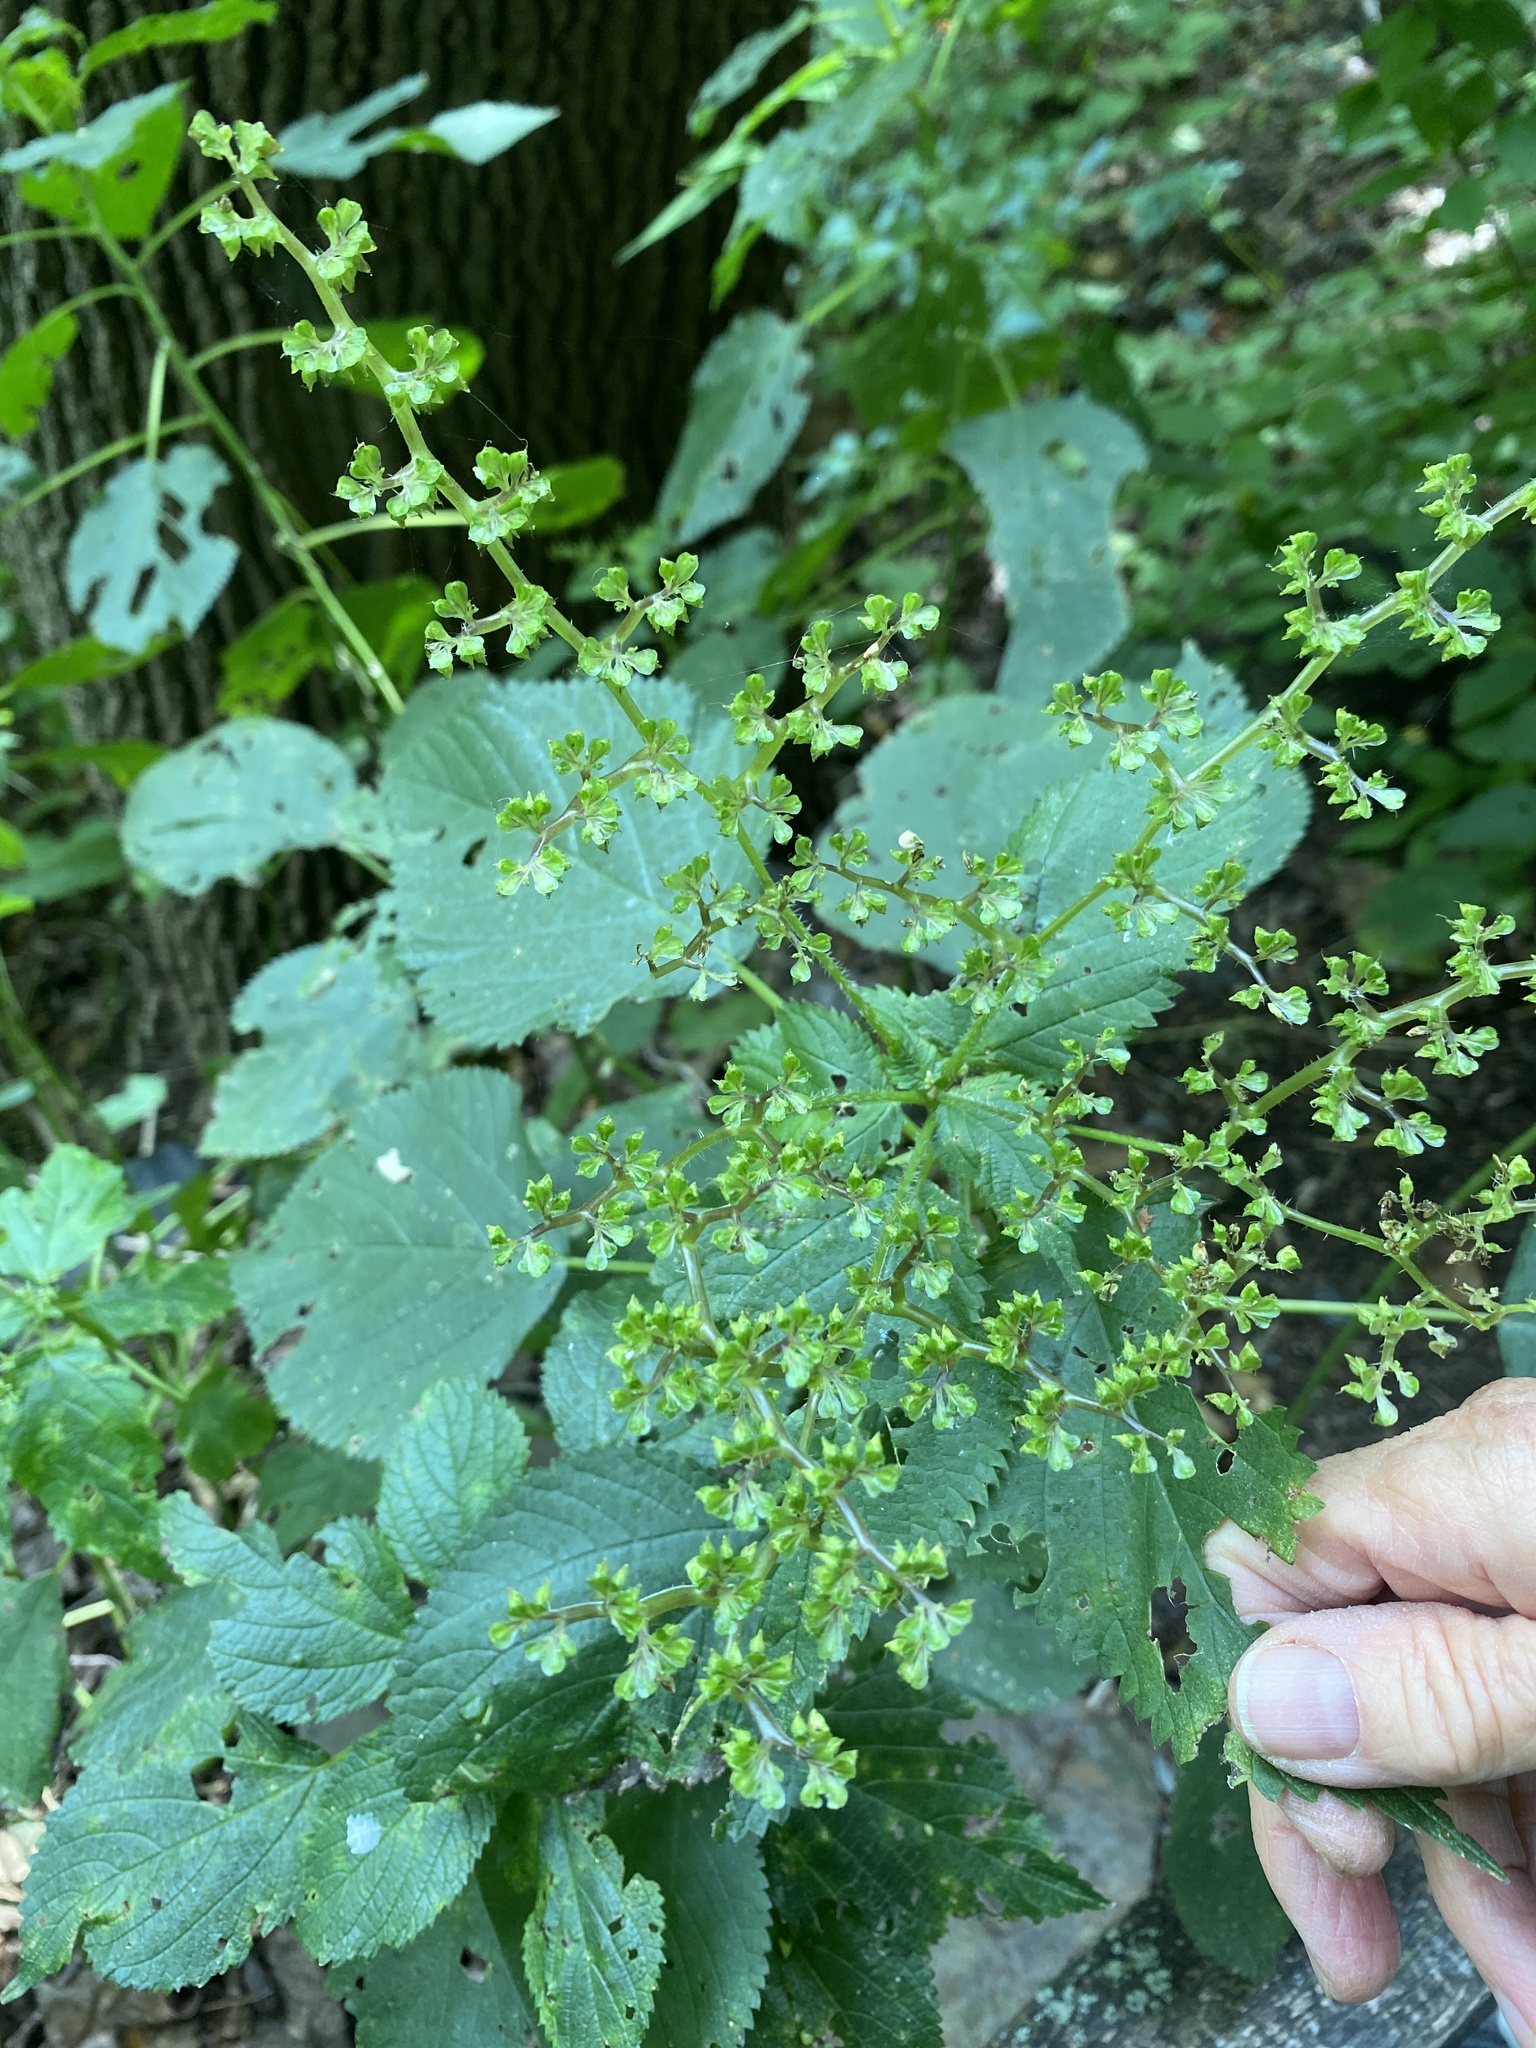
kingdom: Plantae
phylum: Tracheophyta
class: Magnoliopsida
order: Rosales
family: Urticaceae
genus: Laportea
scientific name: Laportea canadensis
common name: Canada nettle
